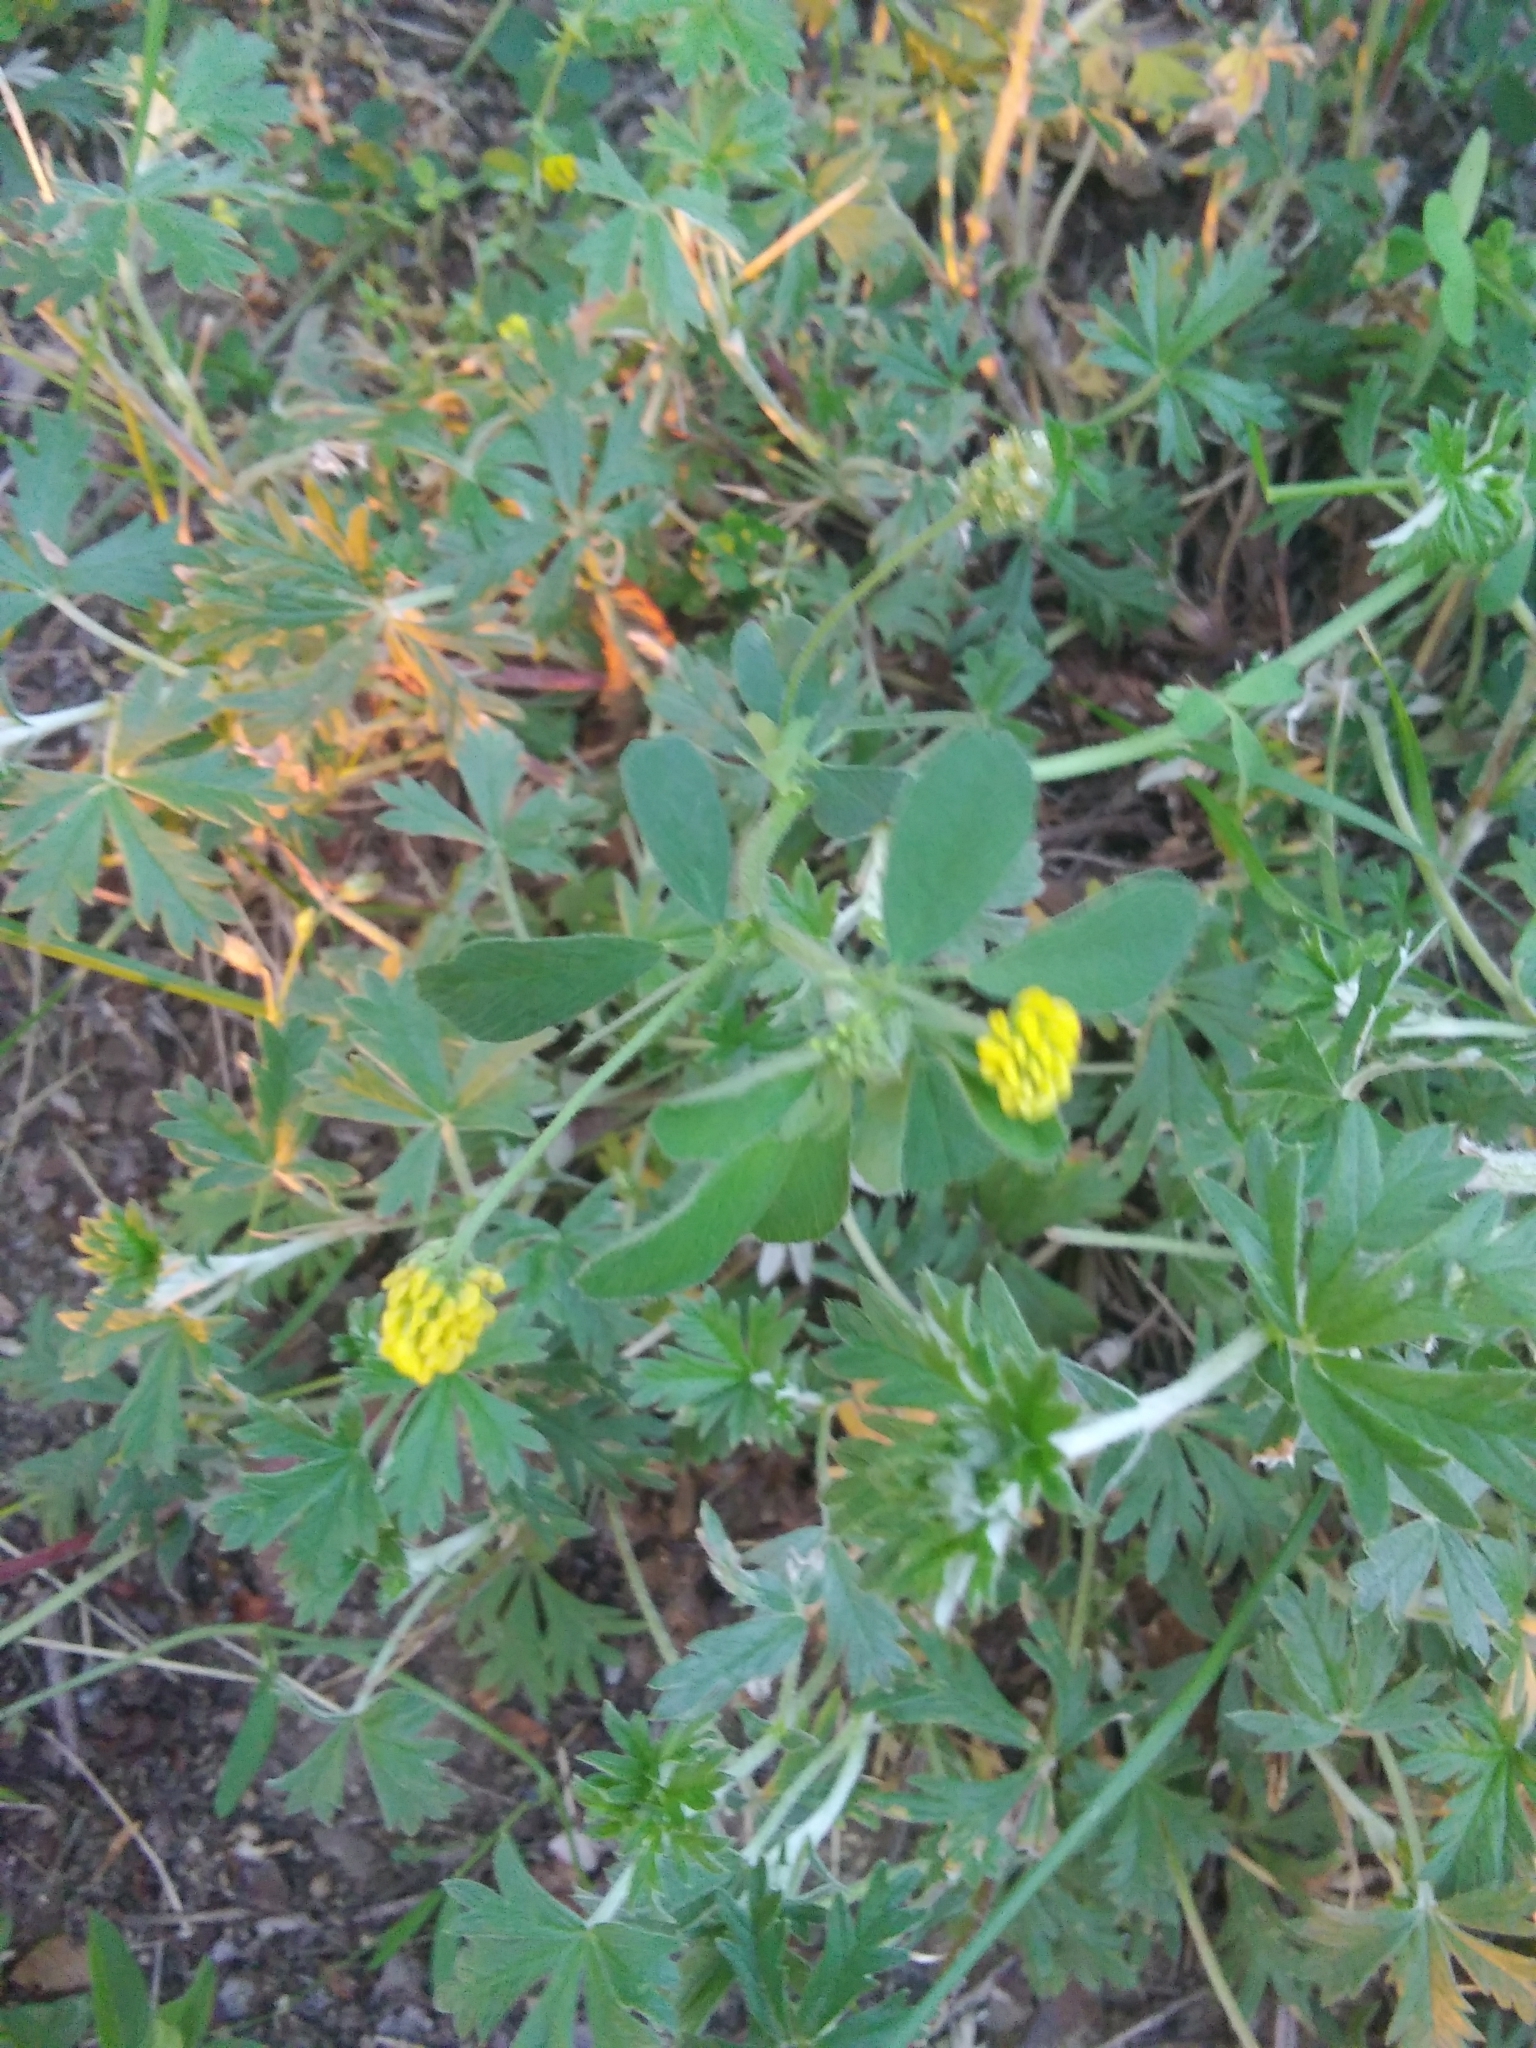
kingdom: Plantae
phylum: Tracheophyta
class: Magnoliopsida
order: Fabales
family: Fabaceae
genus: Medicago
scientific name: Medicago lupulina
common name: Black medick
